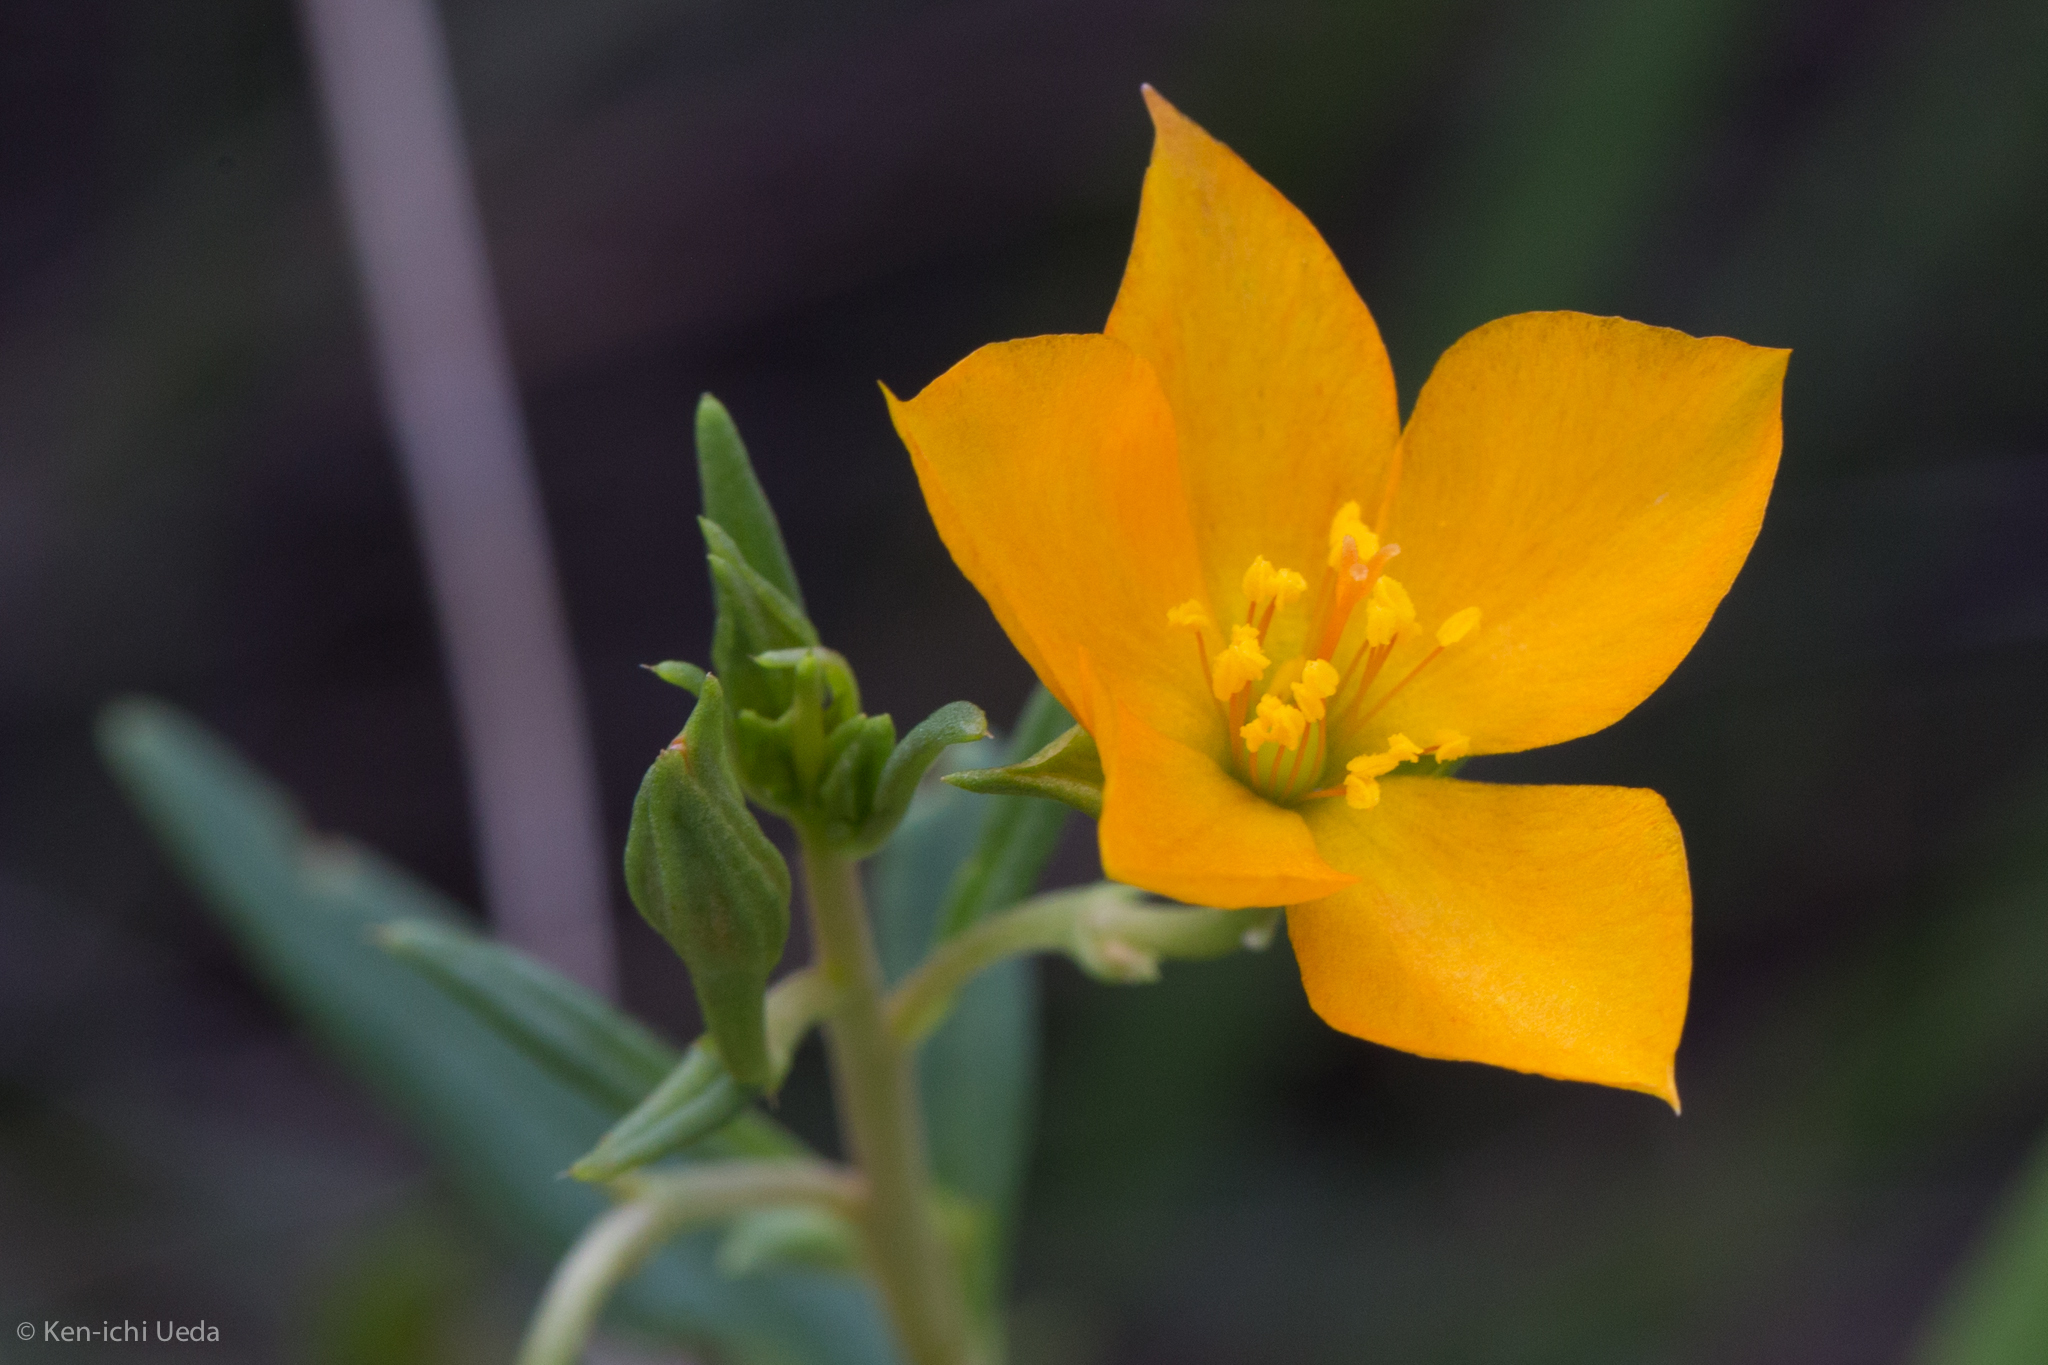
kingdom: Plantae
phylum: Tracheophyta
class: Magnoliopsida
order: Caryophyllales
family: Montiaceae
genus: Phemeranthus
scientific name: Phemeranthus aurantiacus
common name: Orange fameflower
